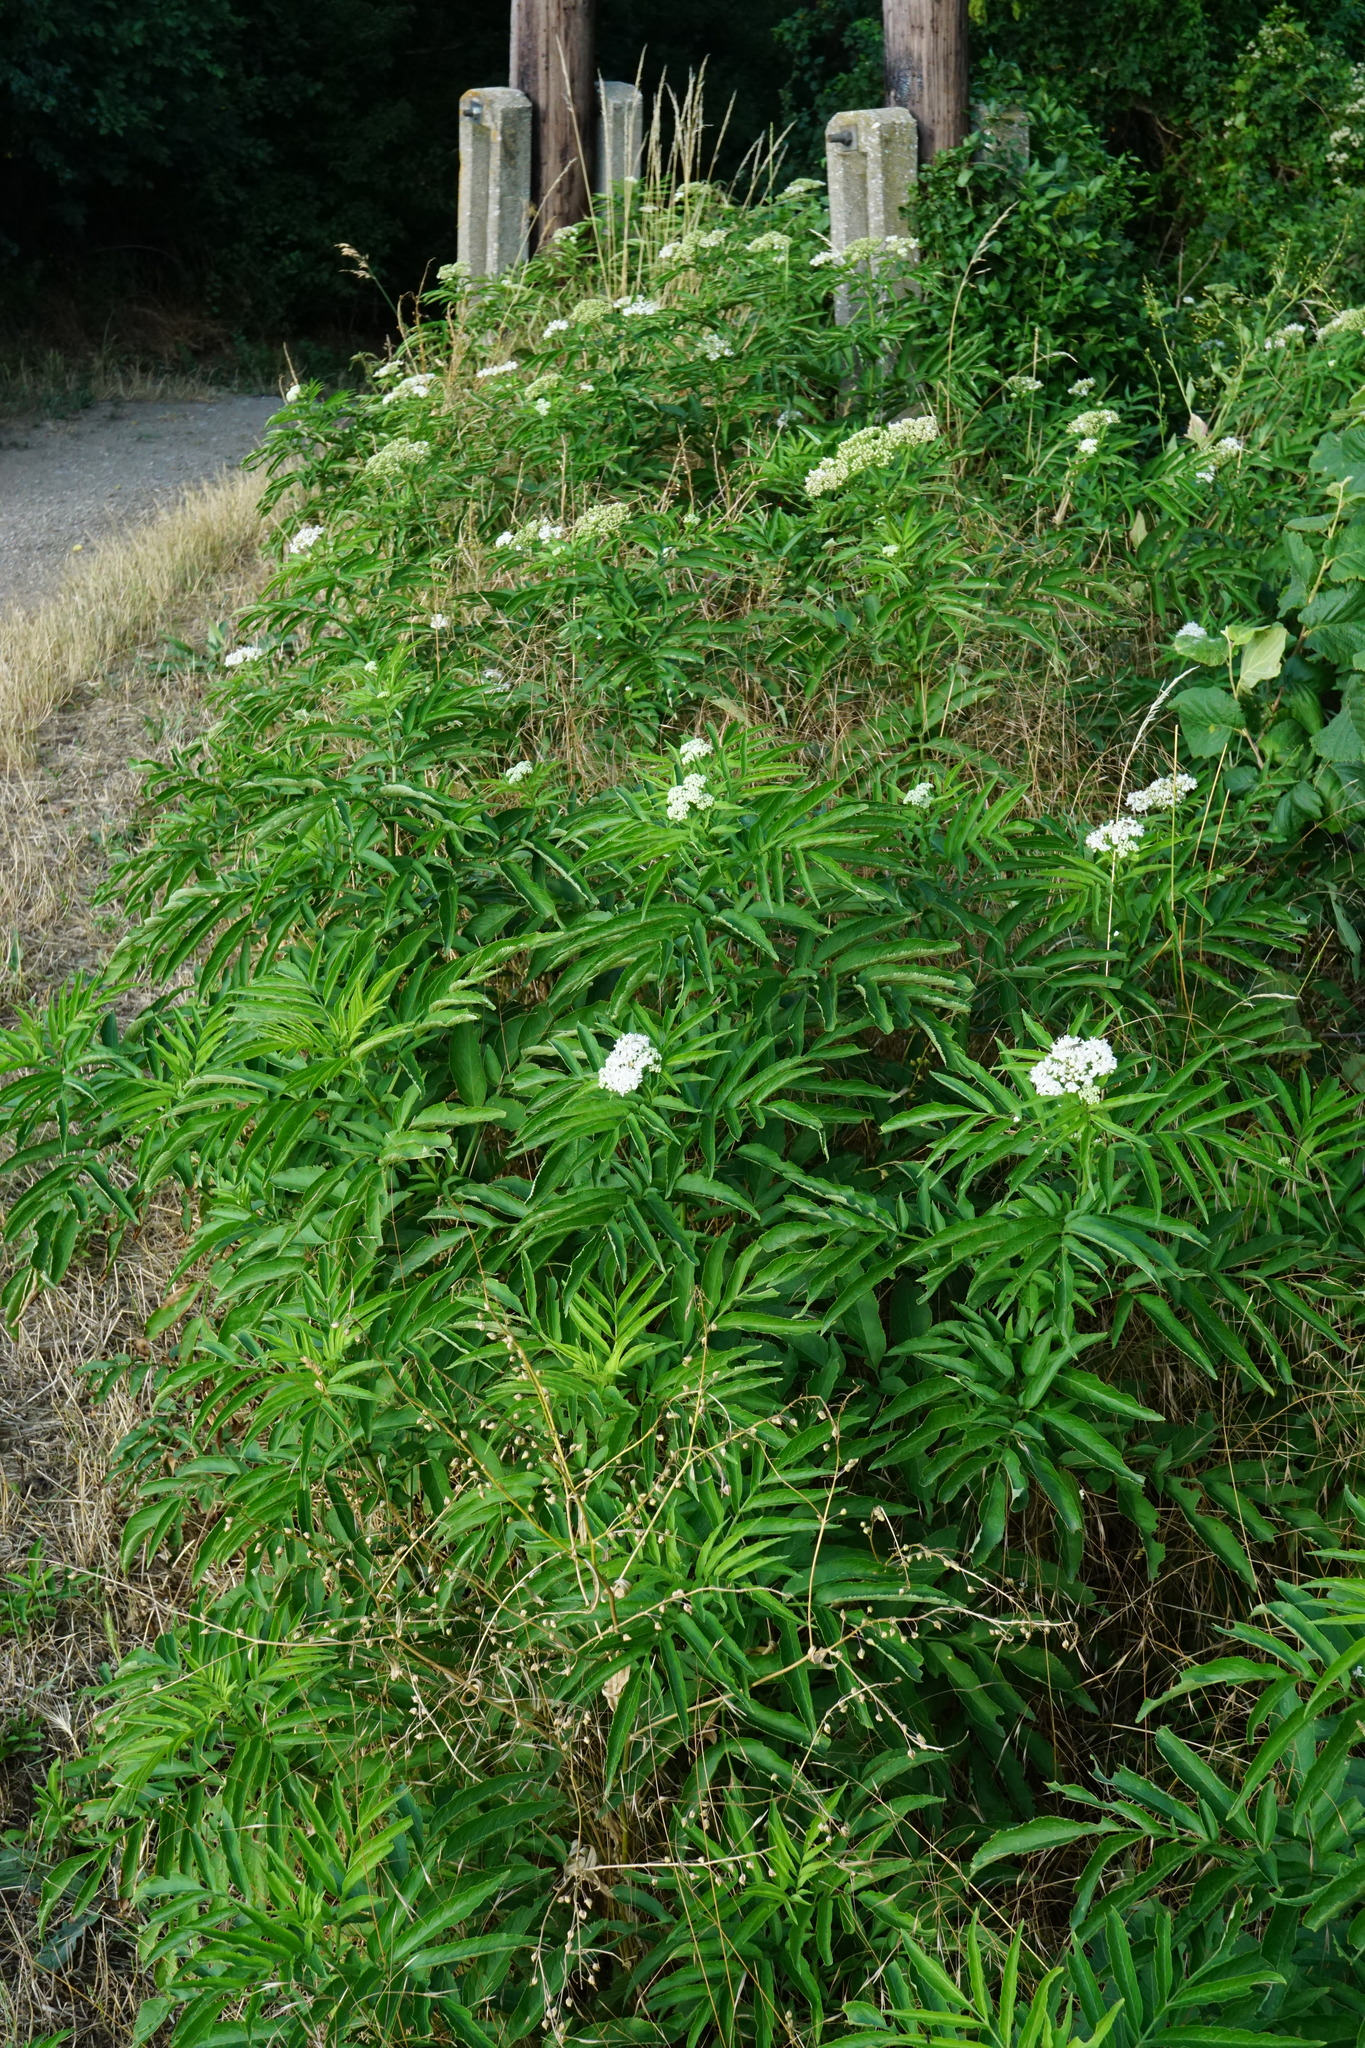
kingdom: Plantae
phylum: Tracheophyta
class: Magnoliopsida
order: Dipsacales
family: Viburnaceae
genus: Sambucus
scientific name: Sambucus ebulus
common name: Dwarf elder
